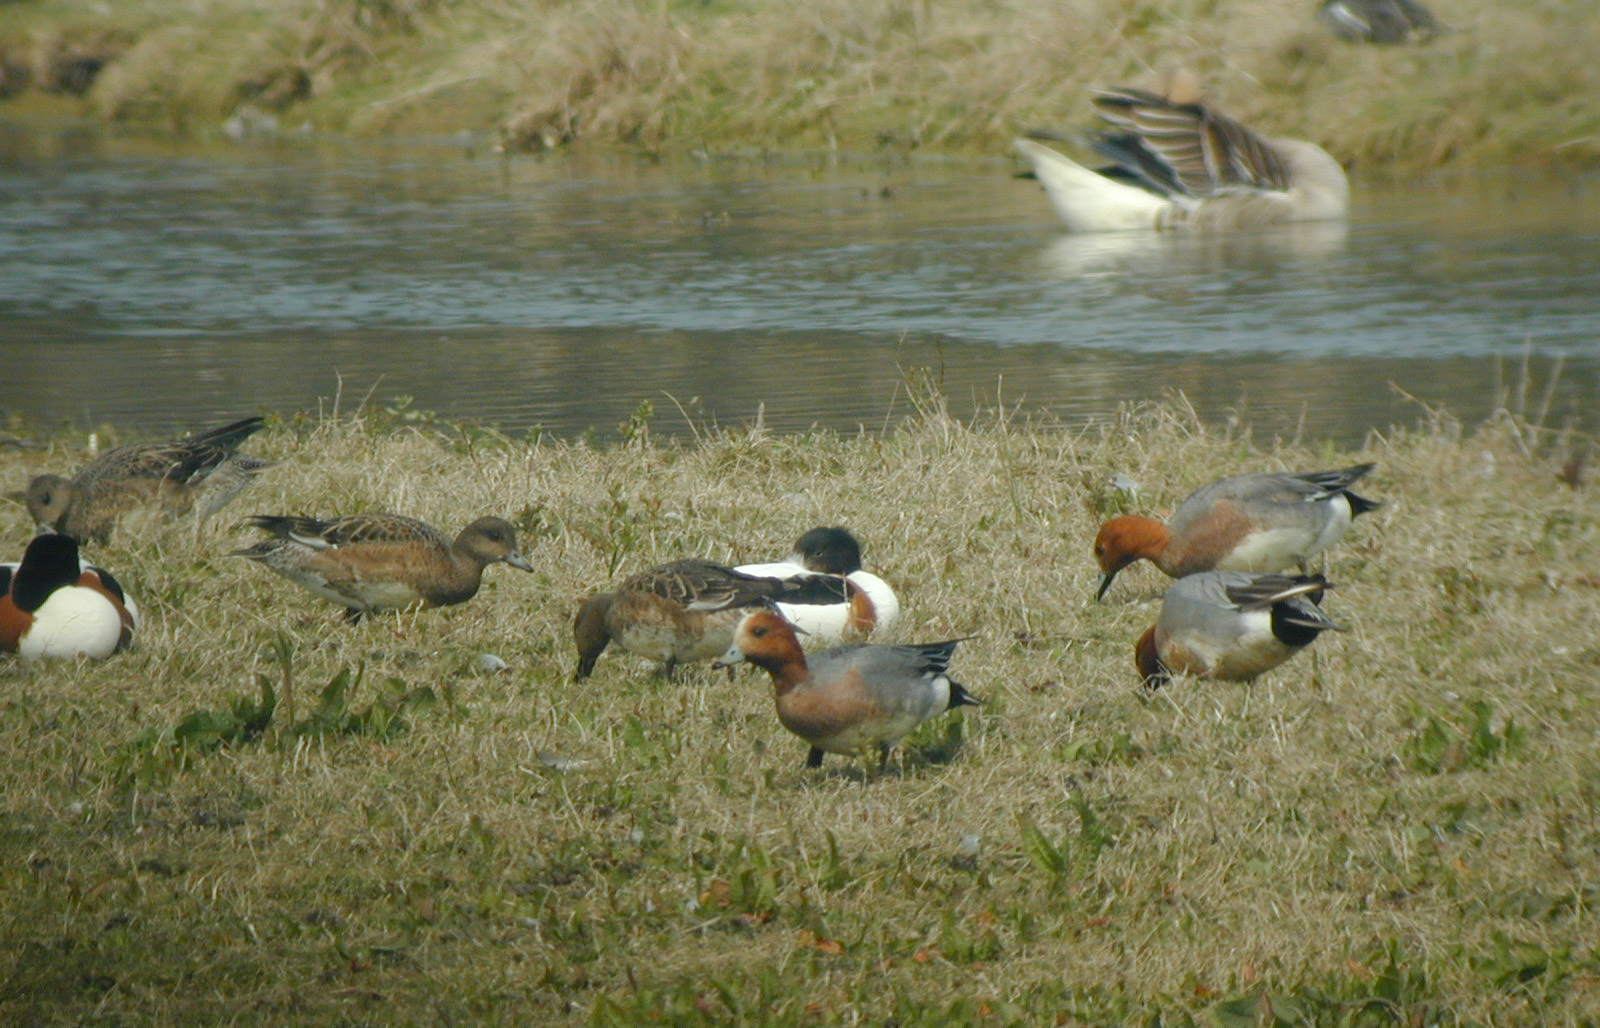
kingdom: Animalia
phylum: Chordata
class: Aves
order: Anseriformes
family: Anatidae
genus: Mareca
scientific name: Mareca penelope
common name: Eurasian wigeon
